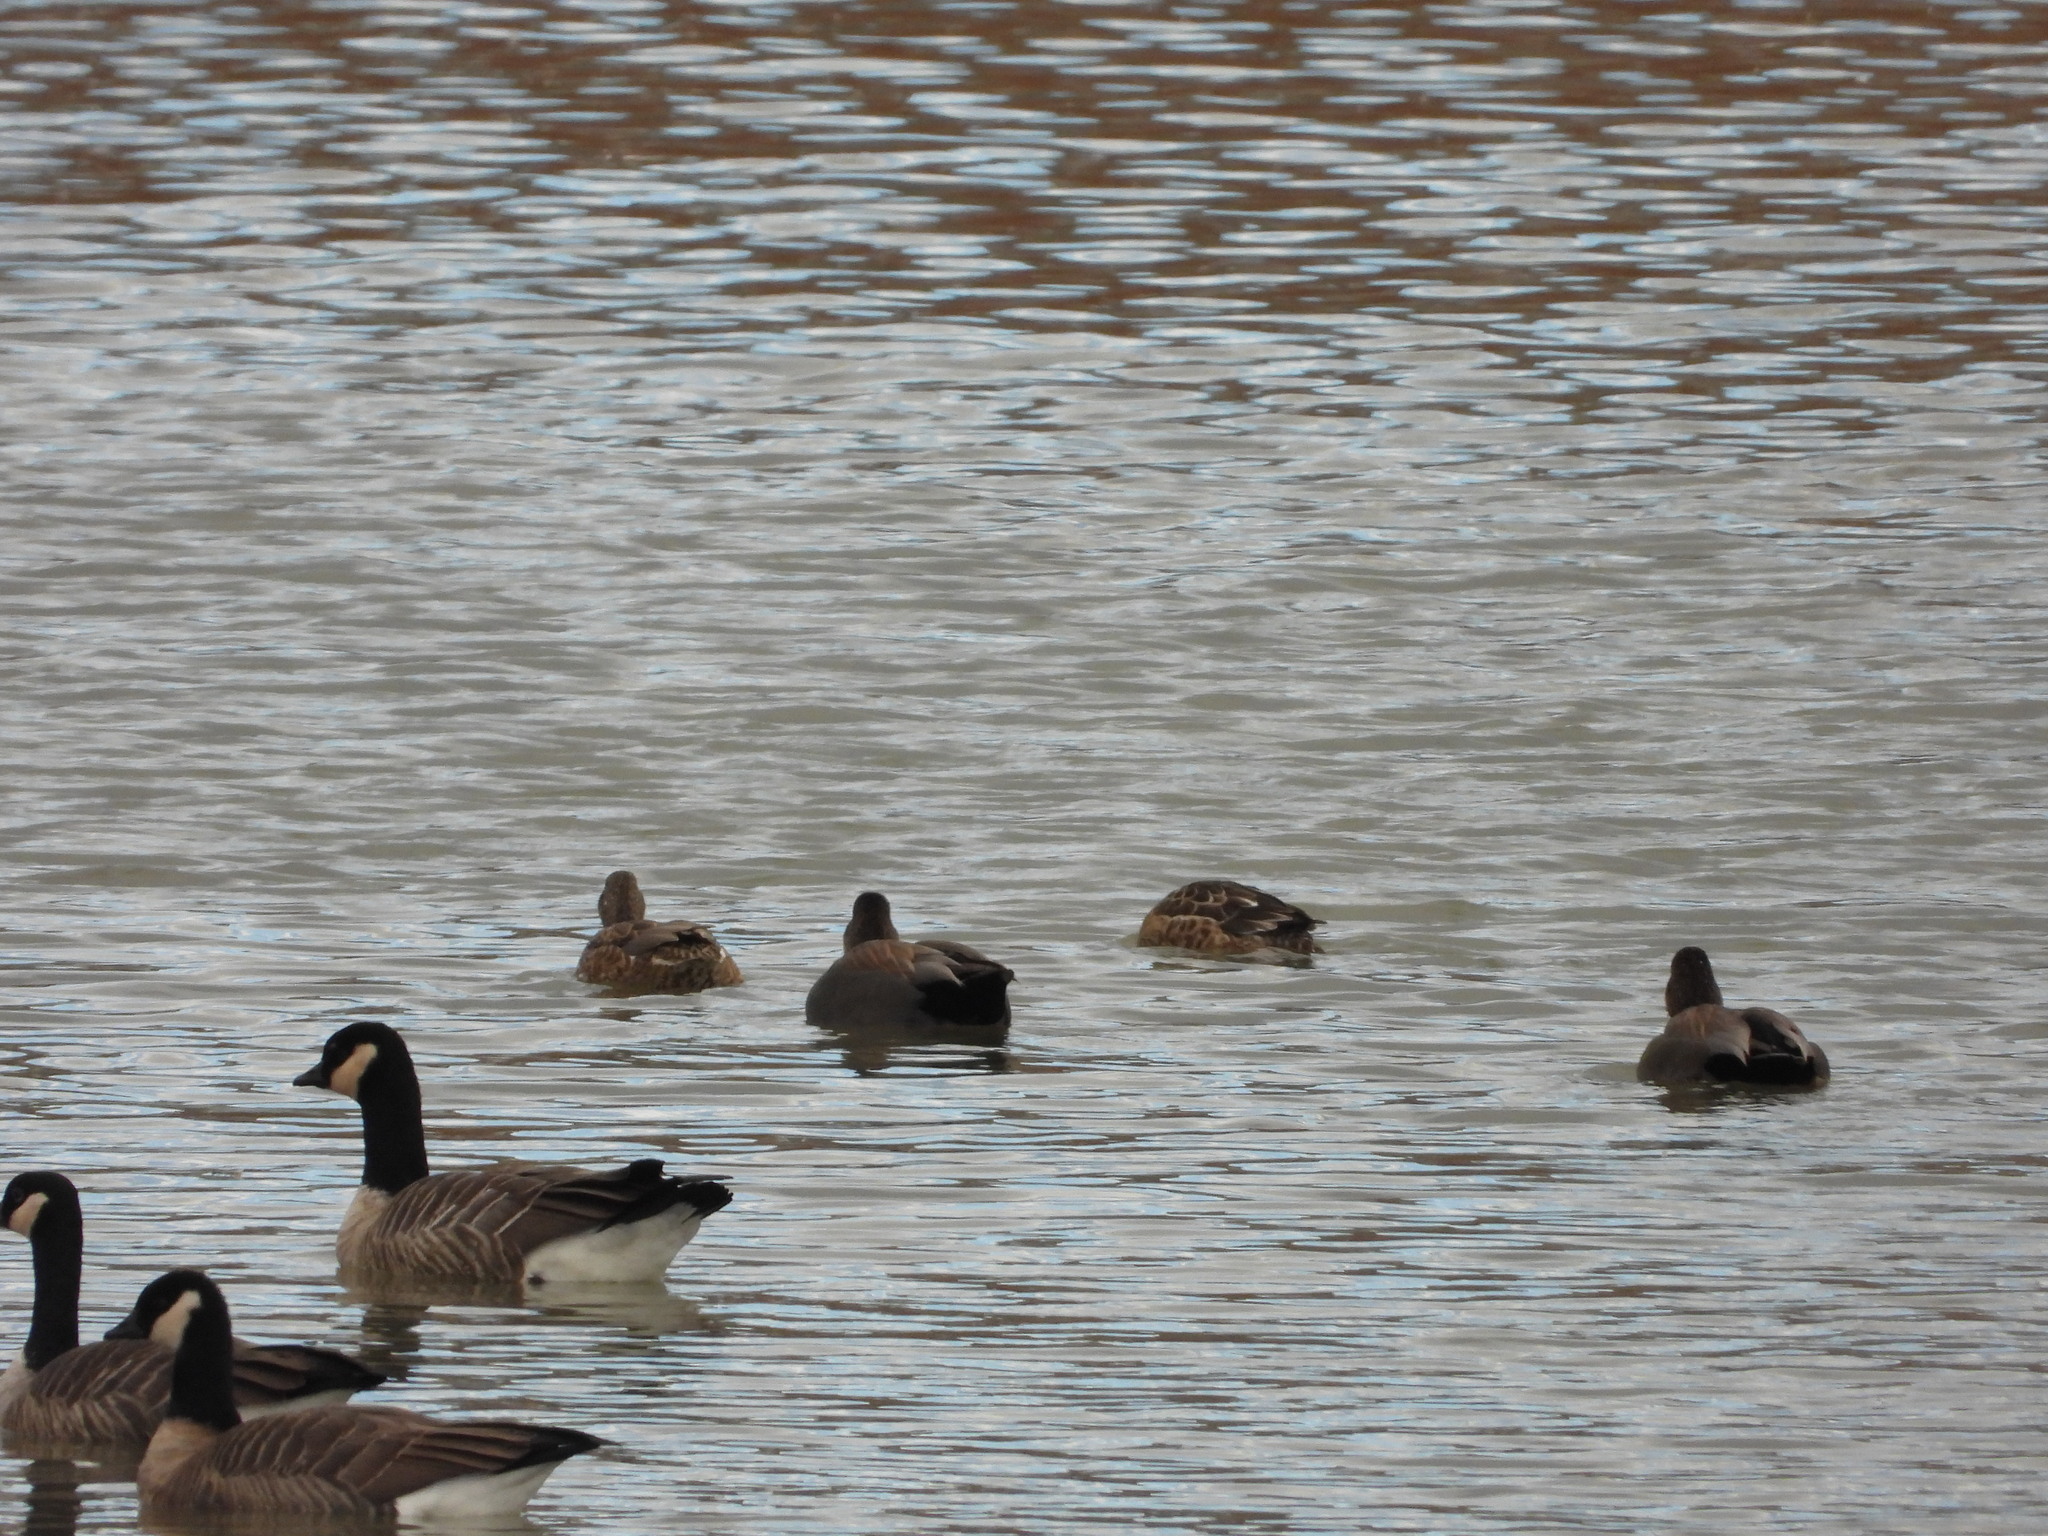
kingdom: Animalia
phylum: Chordata
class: Aves
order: Anseriformes
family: Anatidae
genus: Mareca
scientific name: Mareca strepera
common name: Gadwall
